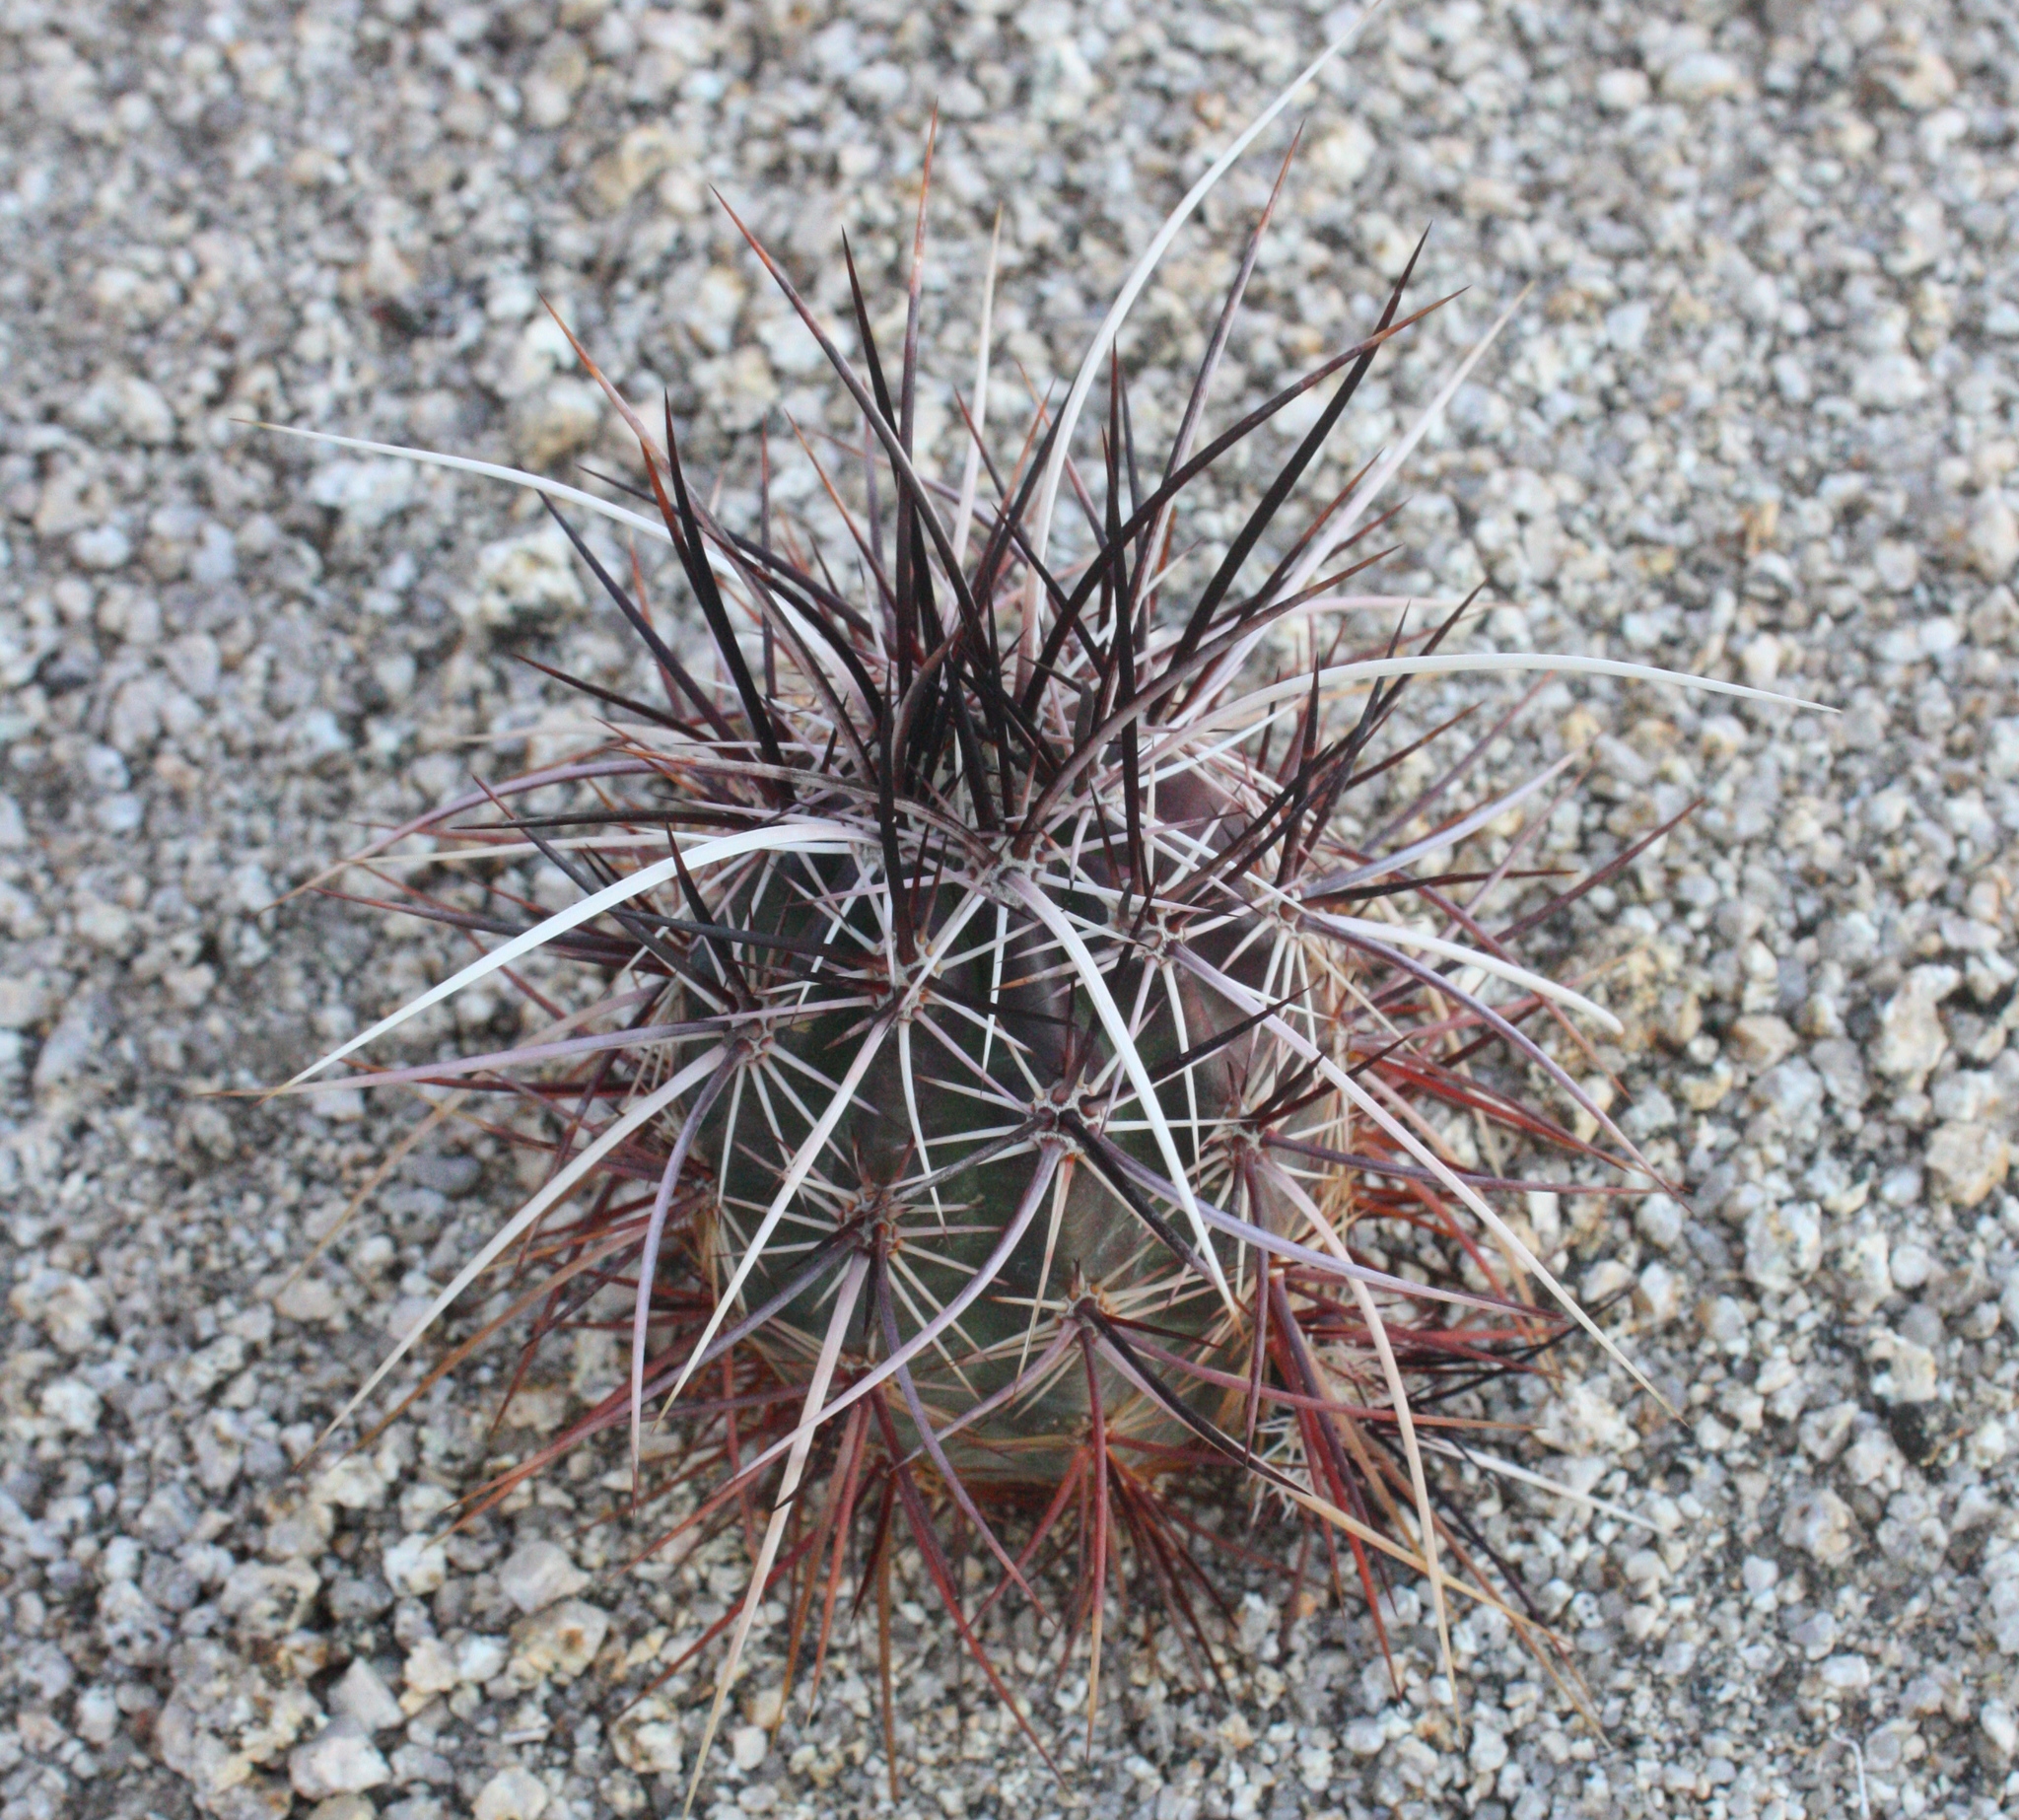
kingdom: Plantae
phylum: Tracheophyta
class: Magnoliopsida
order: Caryophyllales
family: Cactaceae
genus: Echinocereus
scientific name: Echinocereus engelmannii
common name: Engelmann's hedgehog cactus
